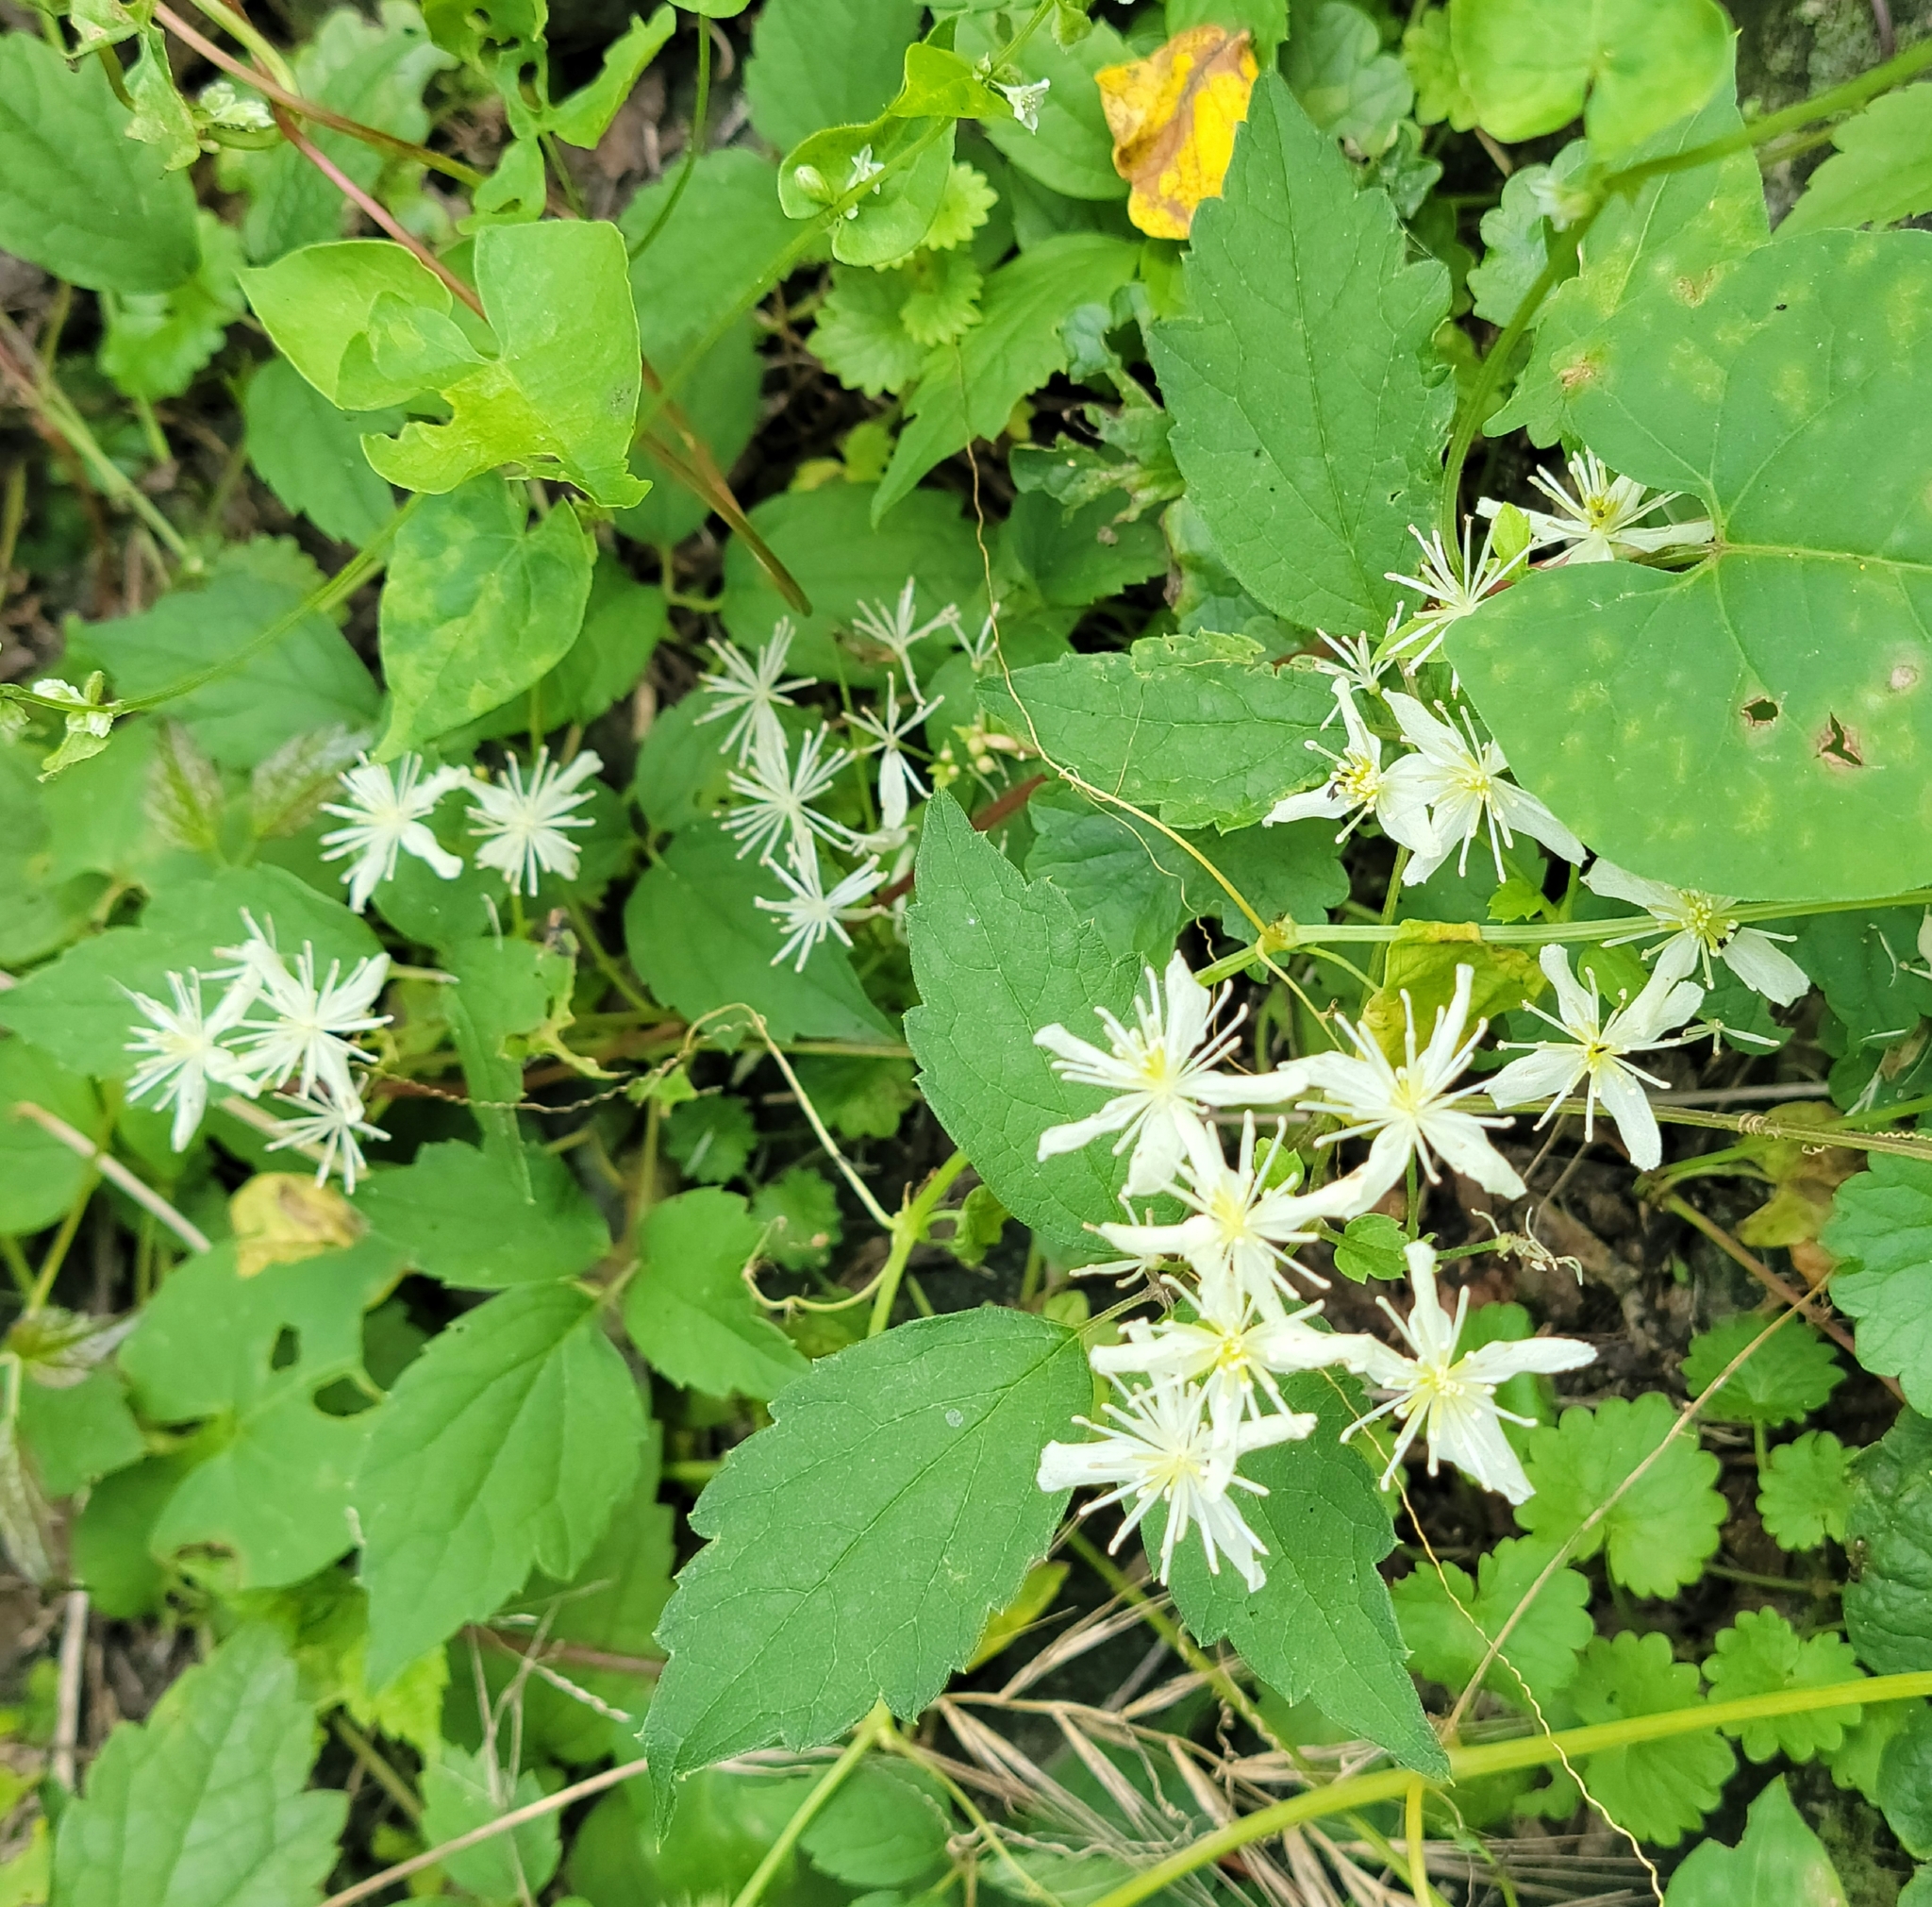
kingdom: Plantae
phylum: Tracheophyta
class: Magnoliopsida
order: Ranunculales
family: Ranunculaceae
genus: Clematis
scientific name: Clematis virginiana
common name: Virgin's-bower
